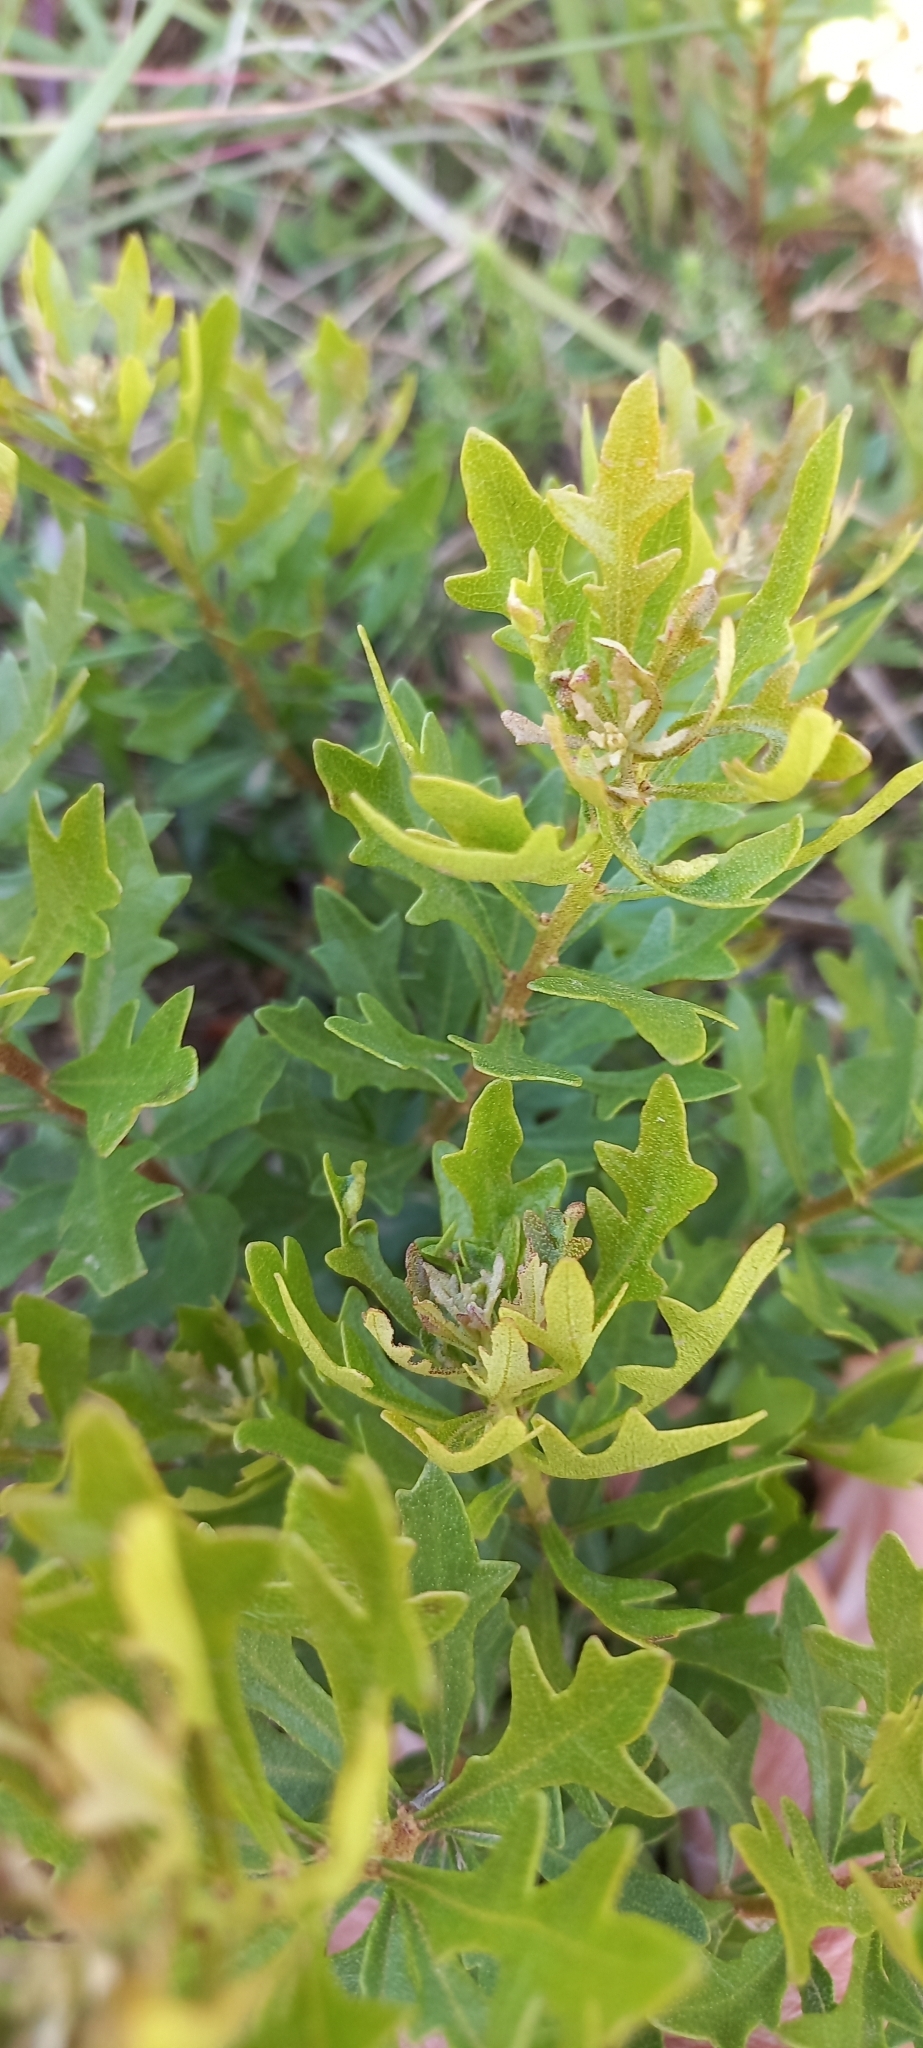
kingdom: Plantae
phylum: Tracheophyta
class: Magnoliopsida
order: Fagales
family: Myricaceae
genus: Morella
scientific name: Morella quercifolia
